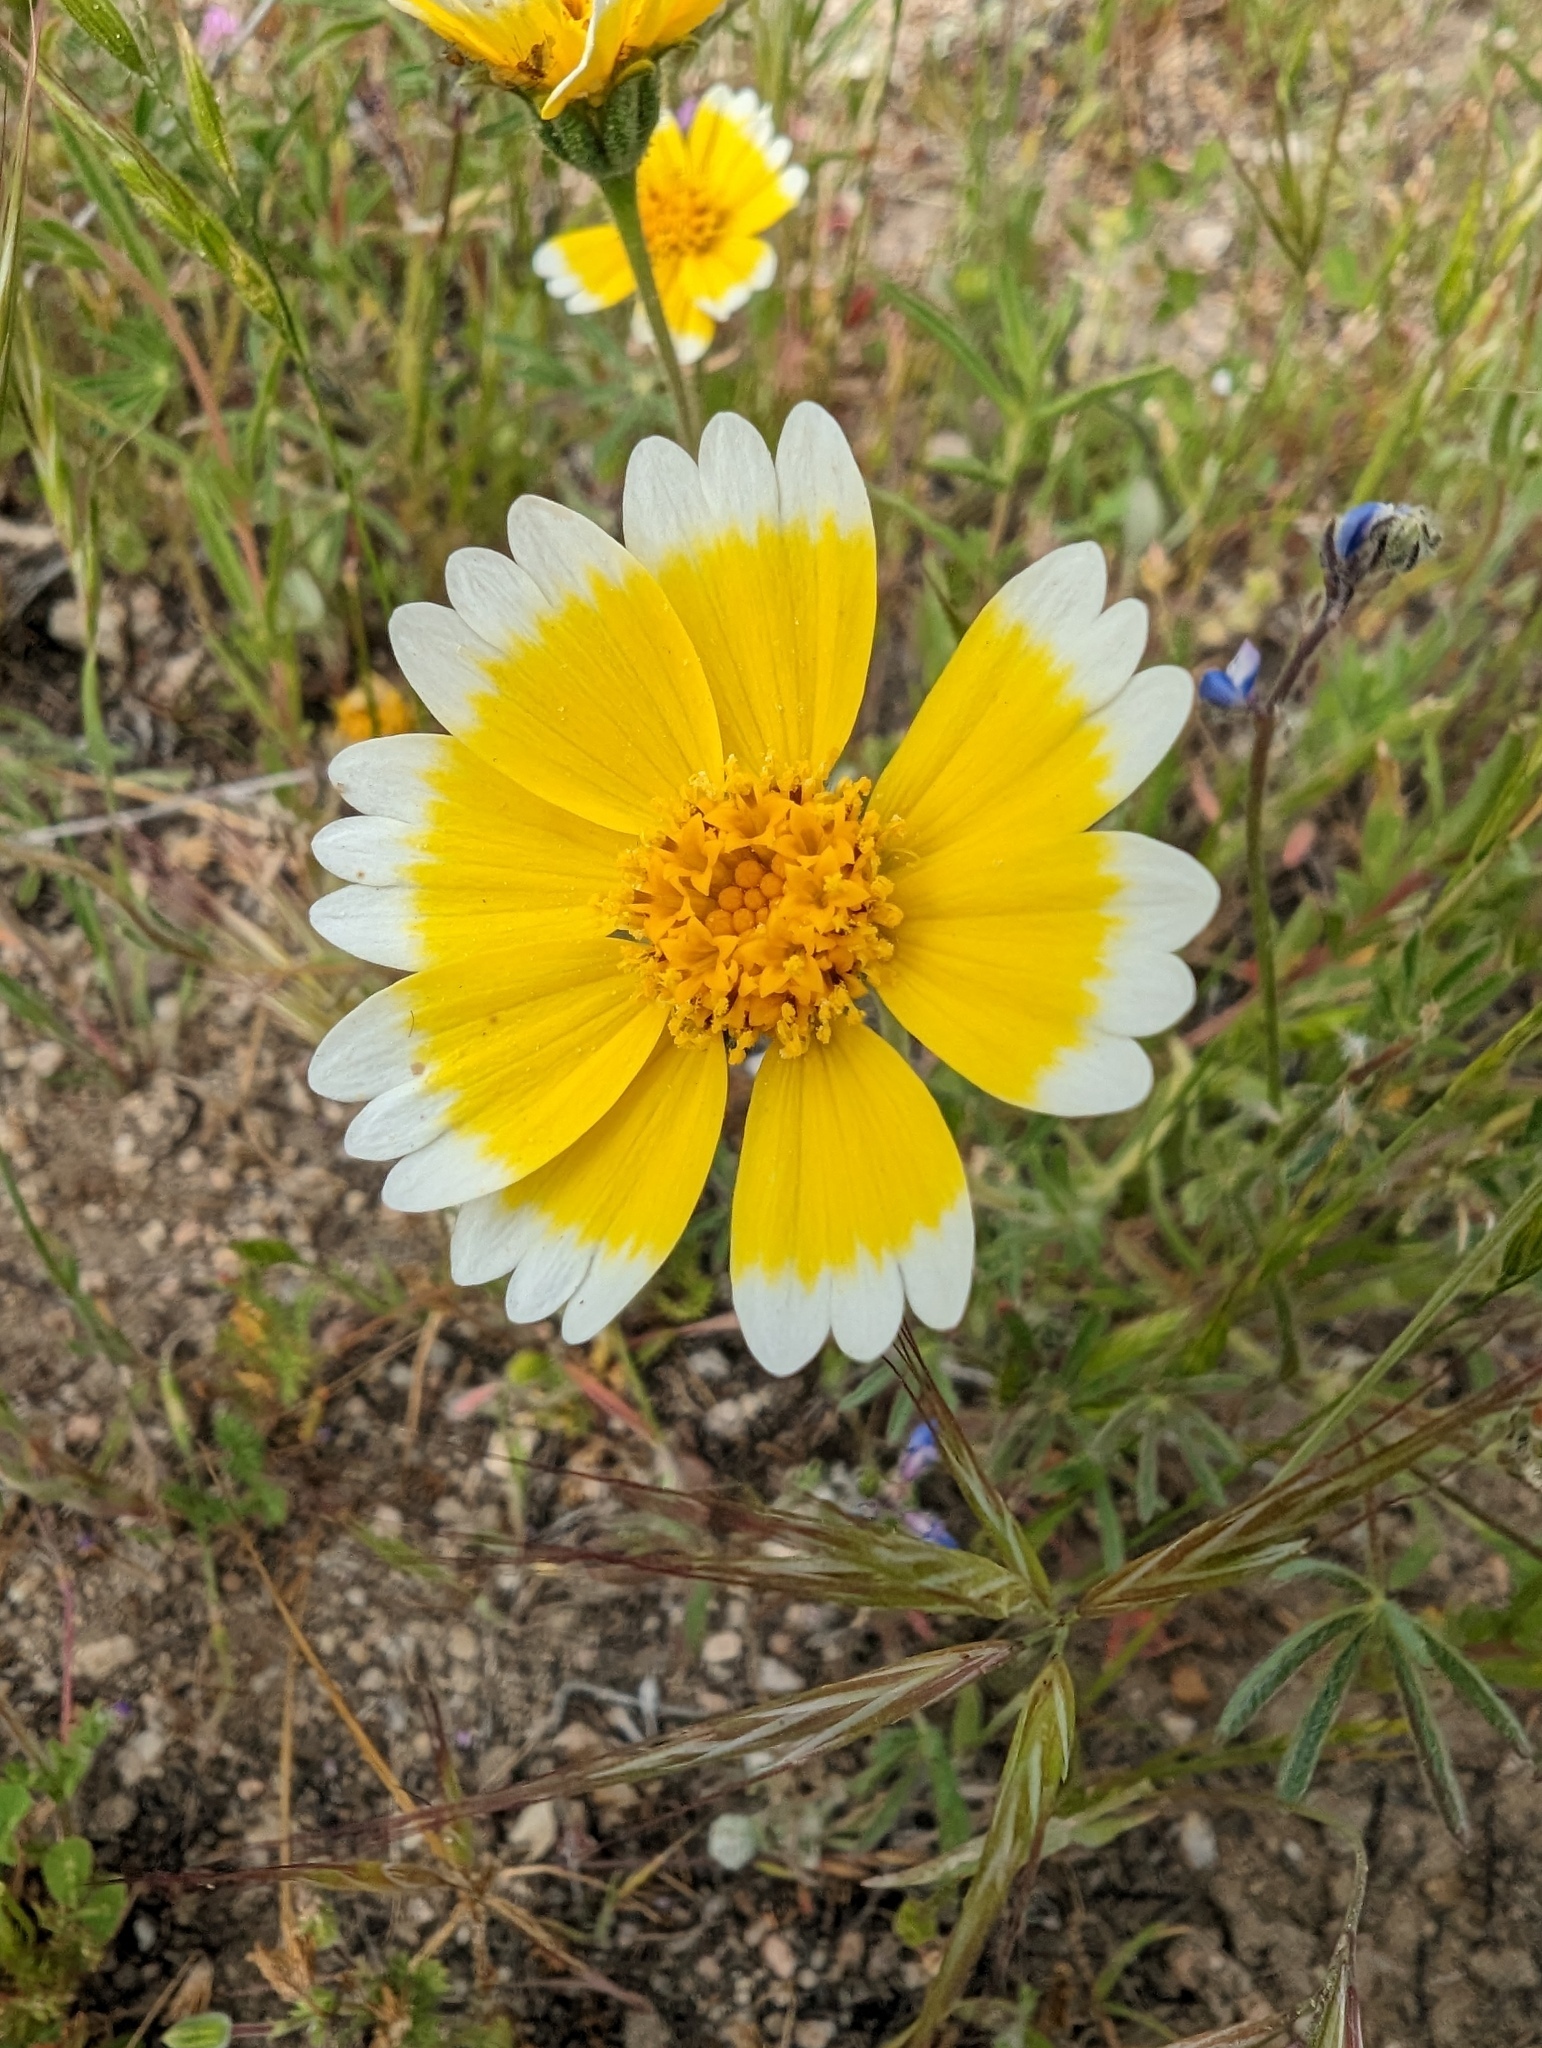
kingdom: Plantae
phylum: Tracheophyta
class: Magnoliopsida
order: Asterales
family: Asteraceae
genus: Layia
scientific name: Layia platyglossa
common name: Tidy-tips
